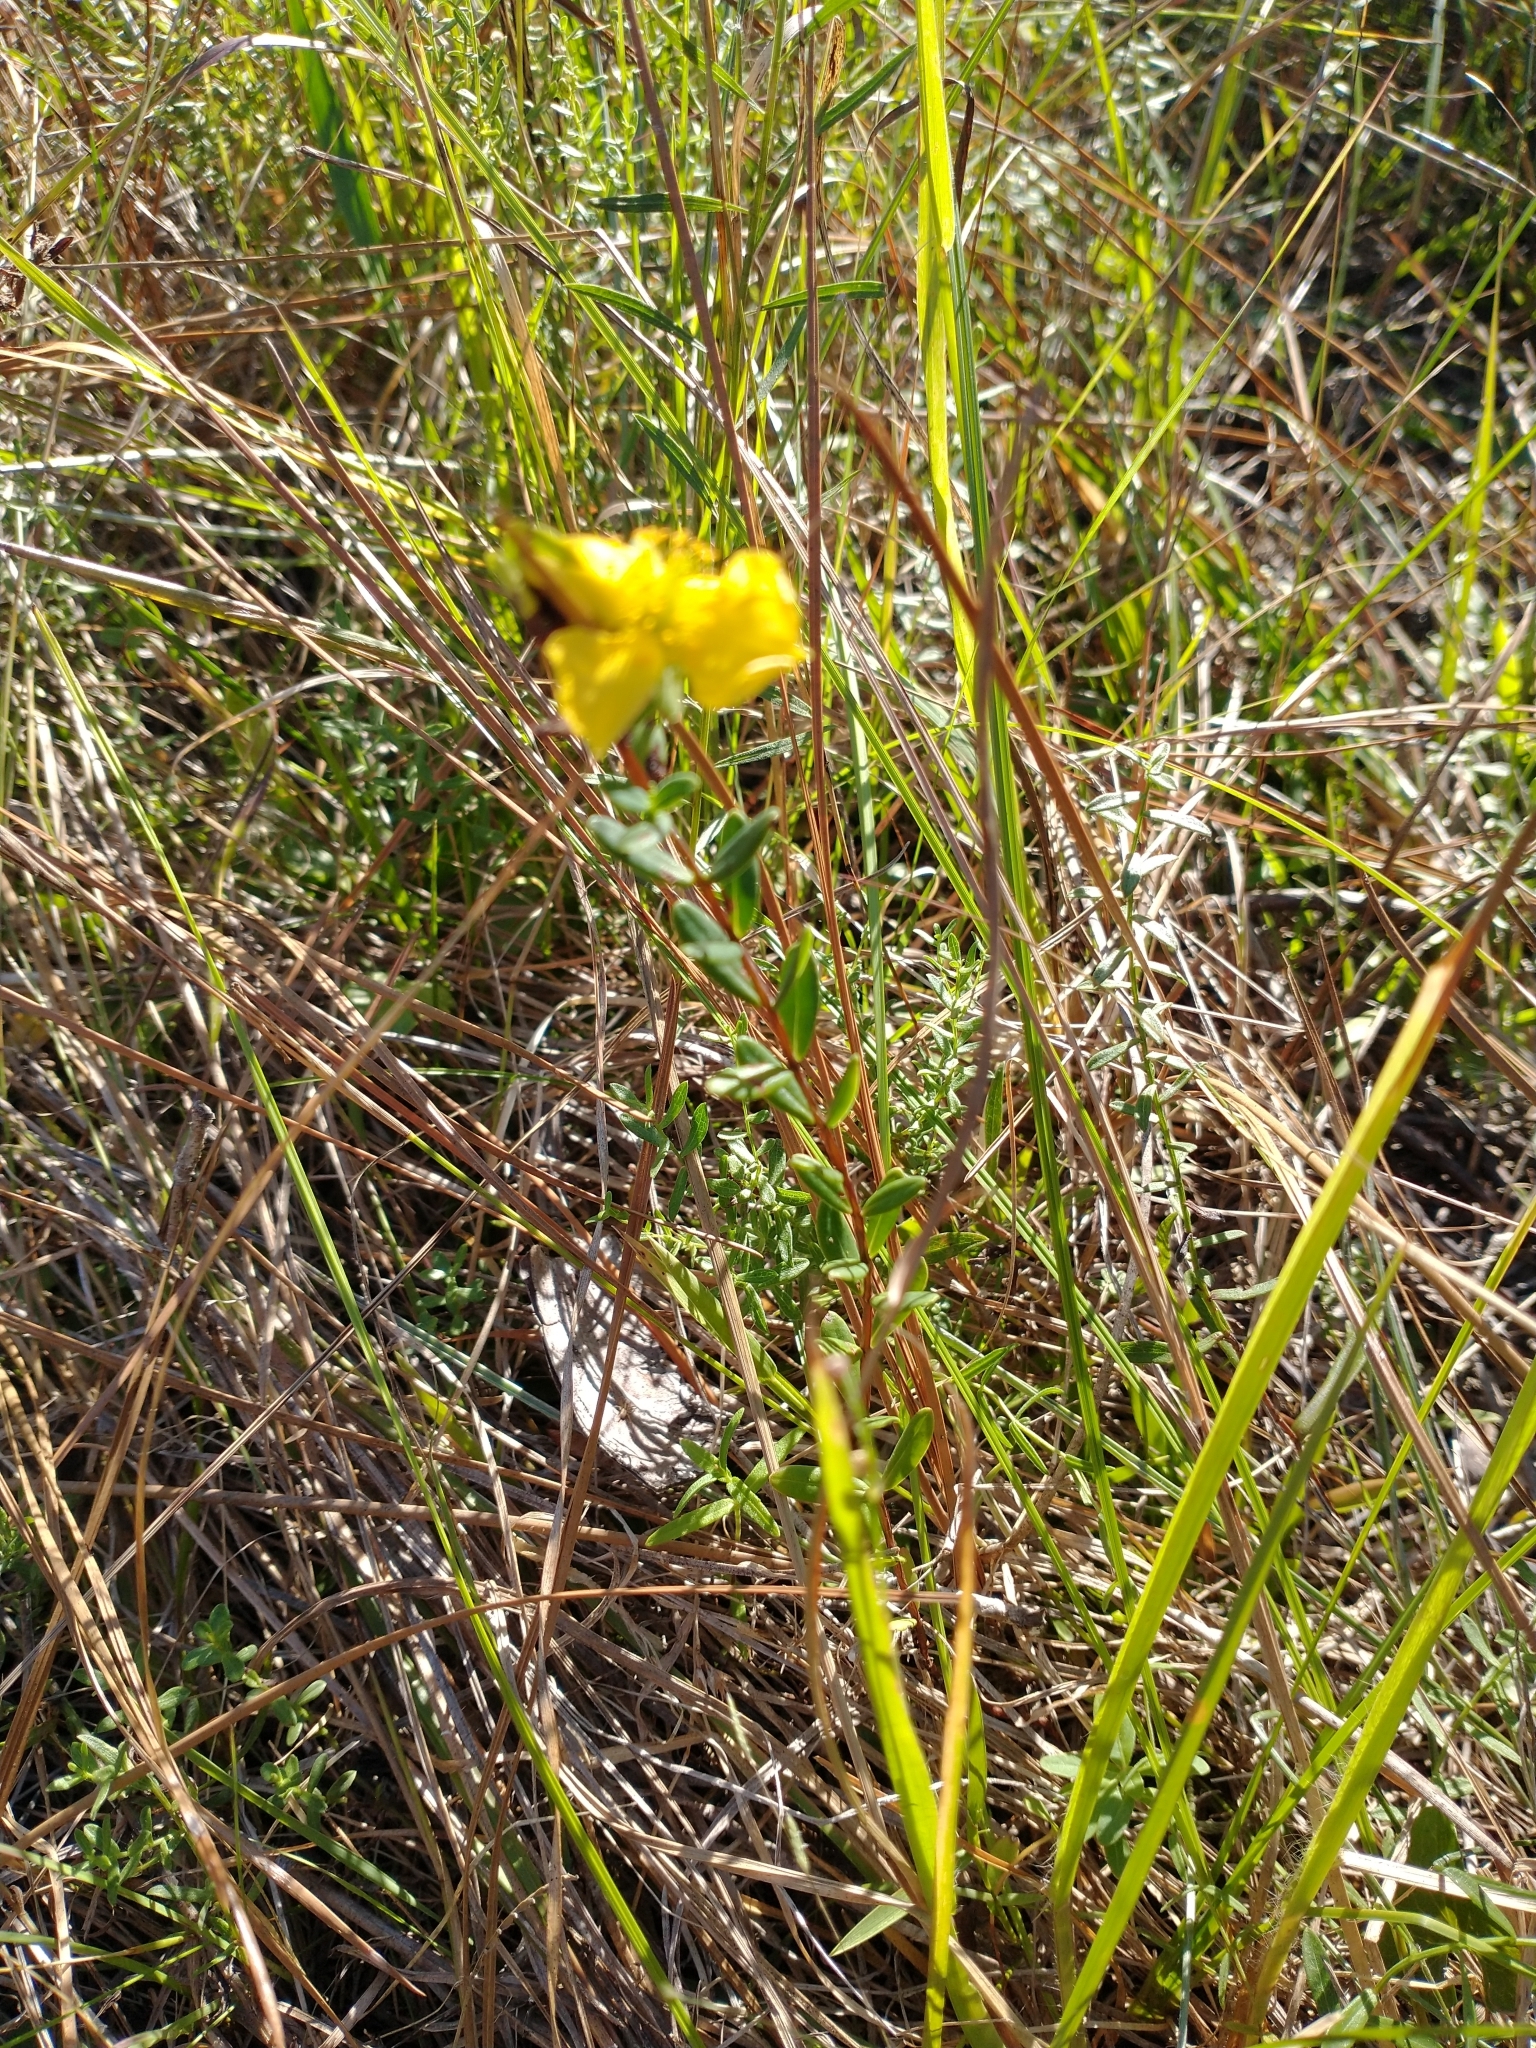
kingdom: Plantae
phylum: Tracheophyta
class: Magnoliopsida
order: Malpighiales
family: Hypericaceae
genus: Hypericum
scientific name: Hypericum crux-andreae
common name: St.-peter's-wort
